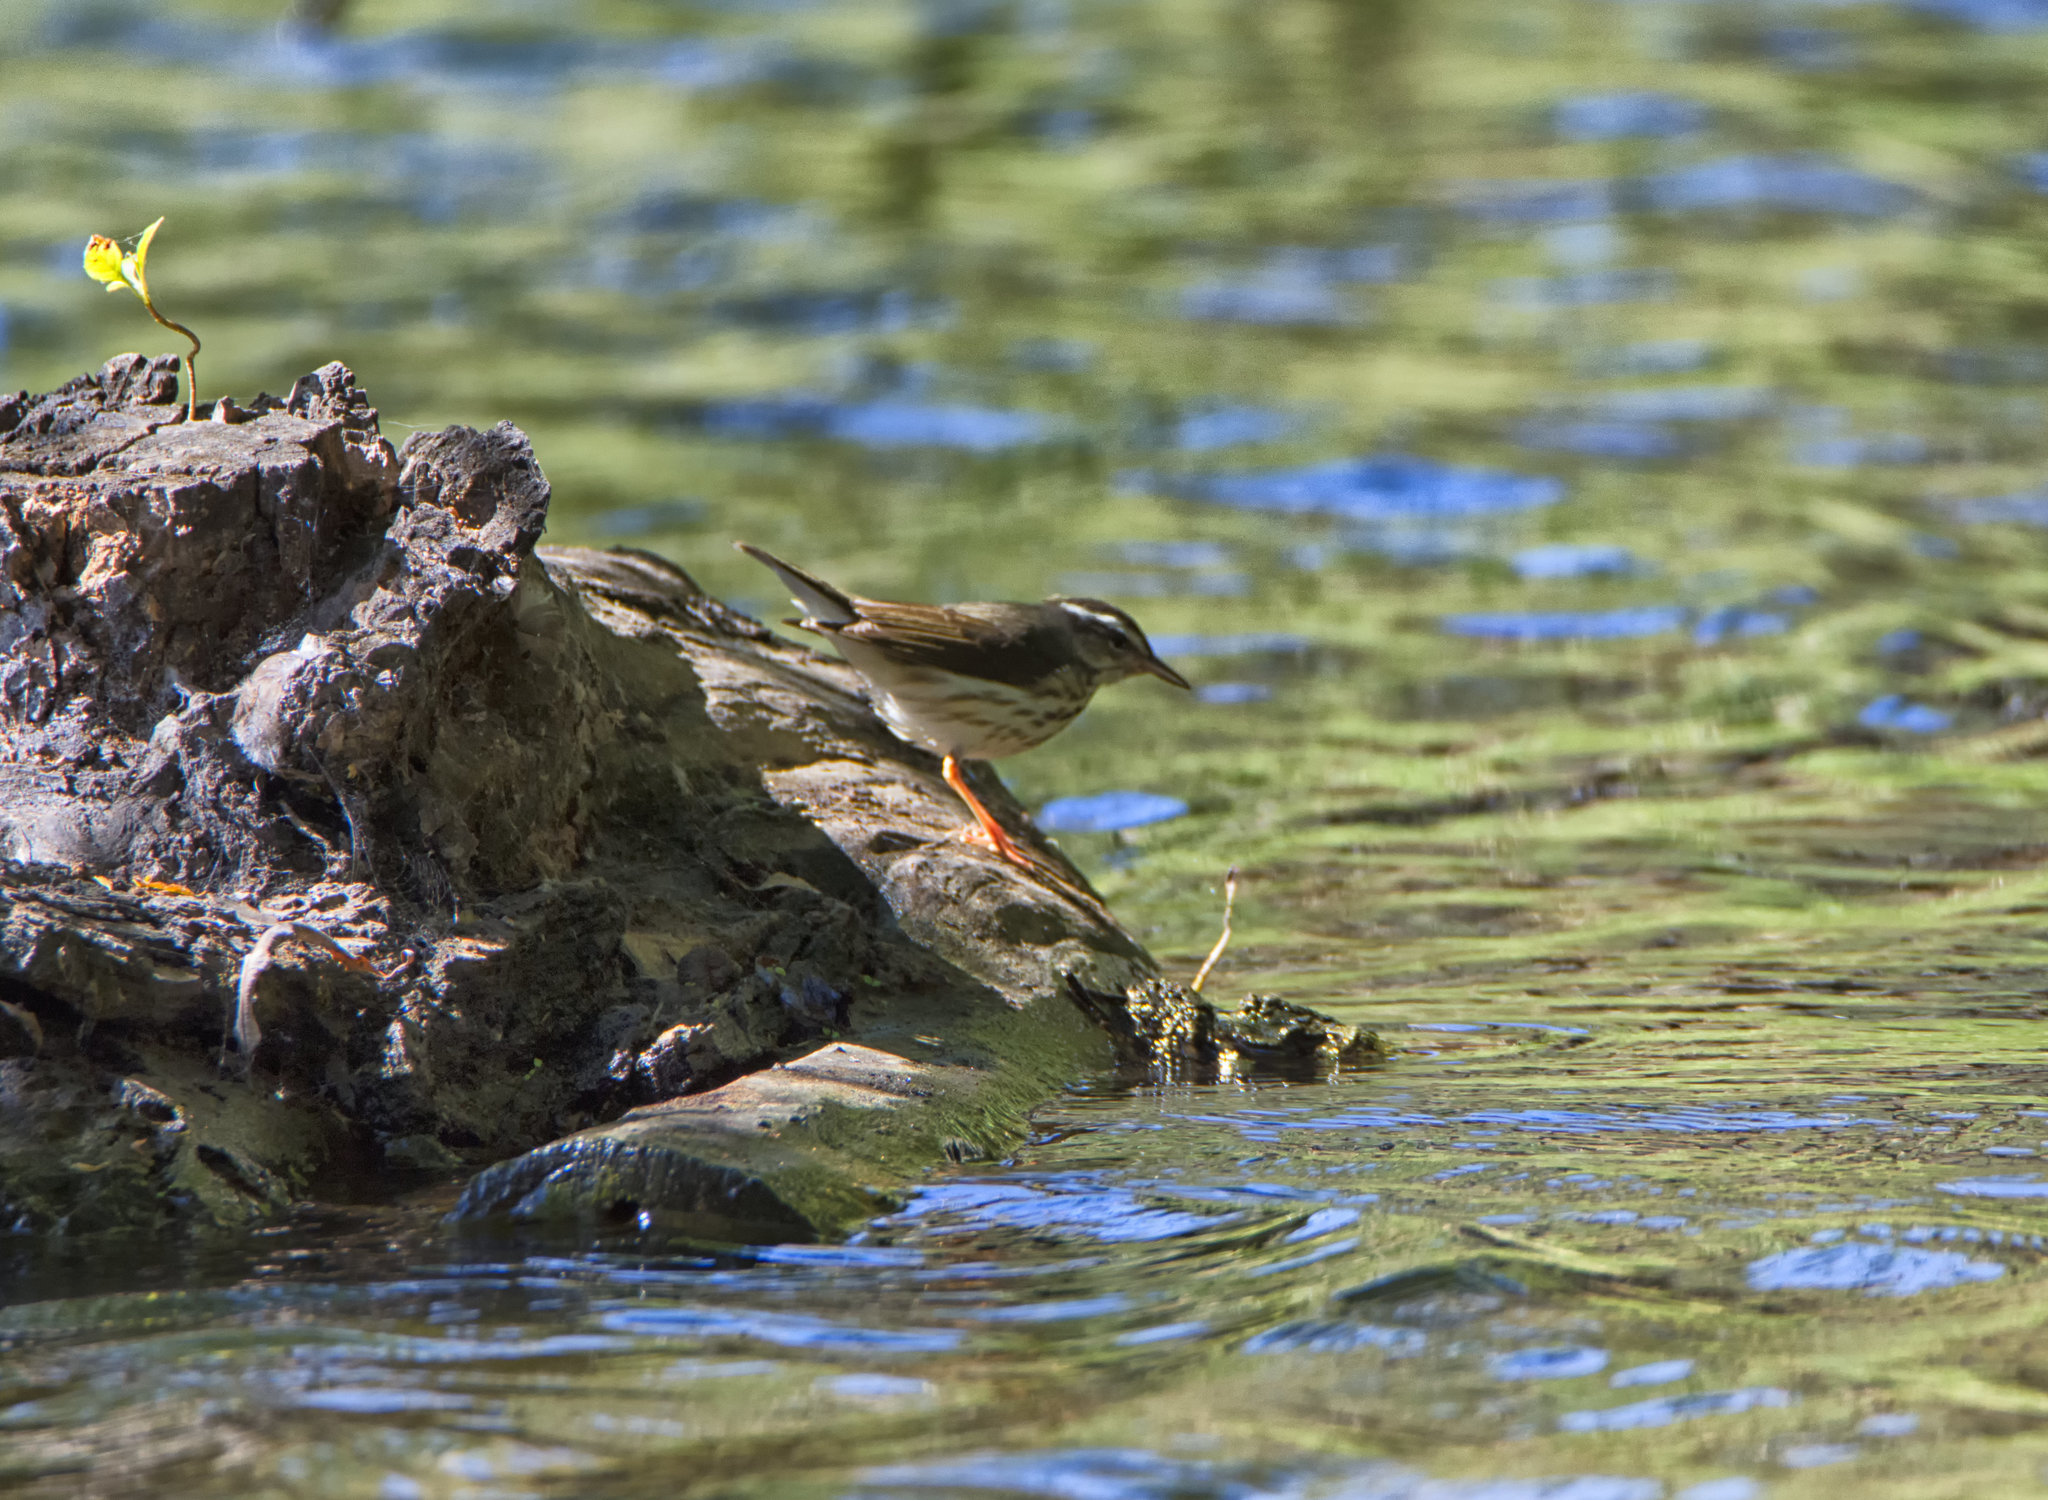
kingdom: Animalia
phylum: Chordata
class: Aves
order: Passeriformes
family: Parulidae
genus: Parkesia
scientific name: Parkesia noveboracensis
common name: Northern waterthrush
